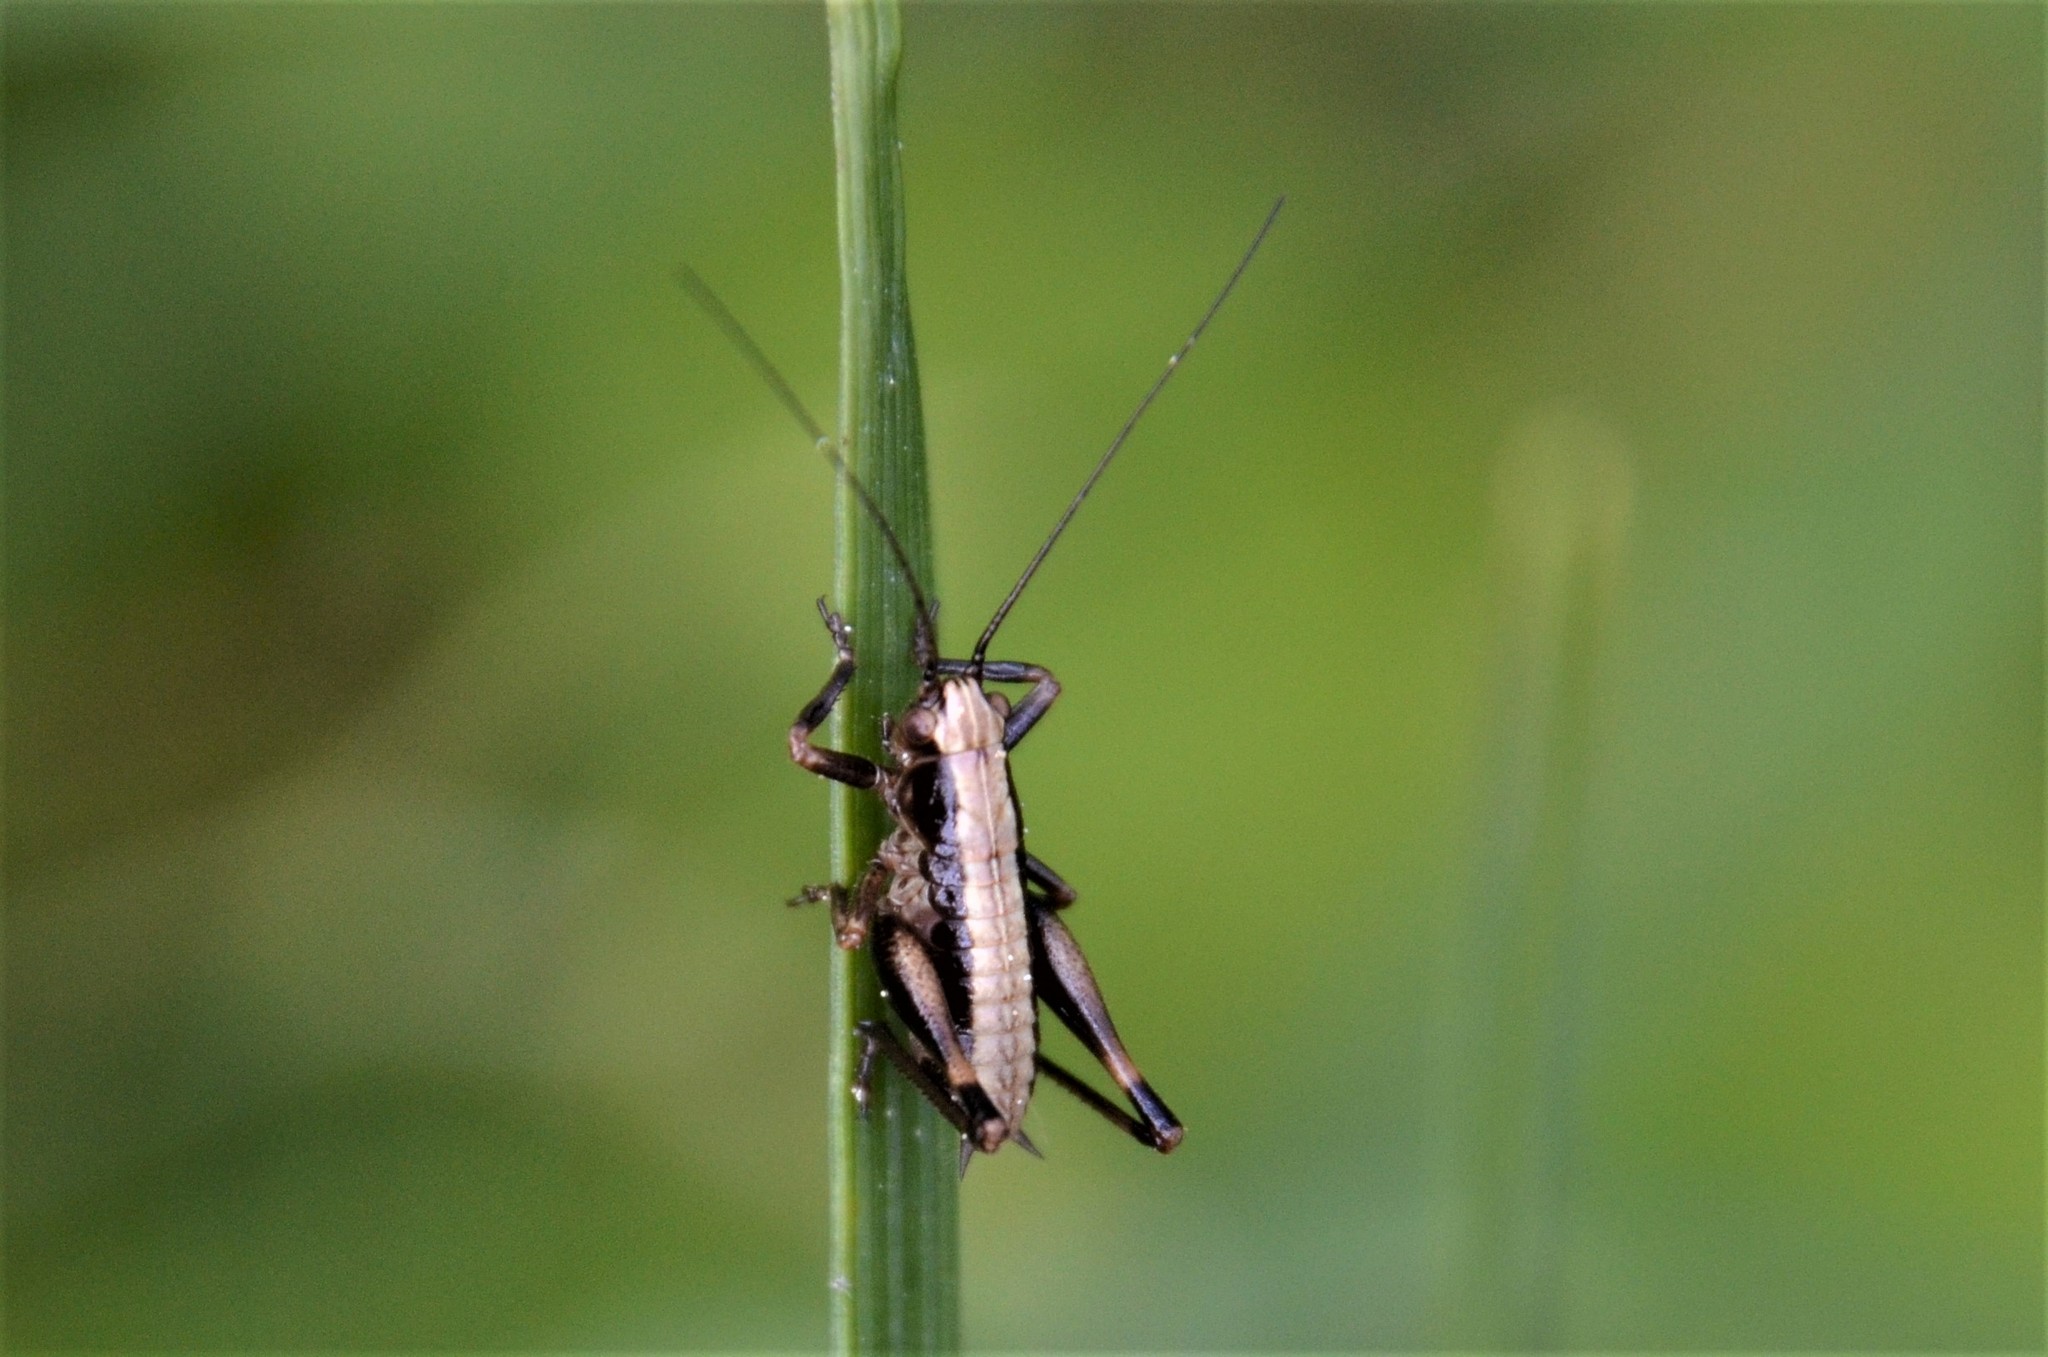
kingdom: Animalia
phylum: Arthropoda
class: Insecta
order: Orthoptera
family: Tettigoniidae
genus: Pholidoptera
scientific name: Pholidoptera griseoaptera
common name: Dark bush-cricket
